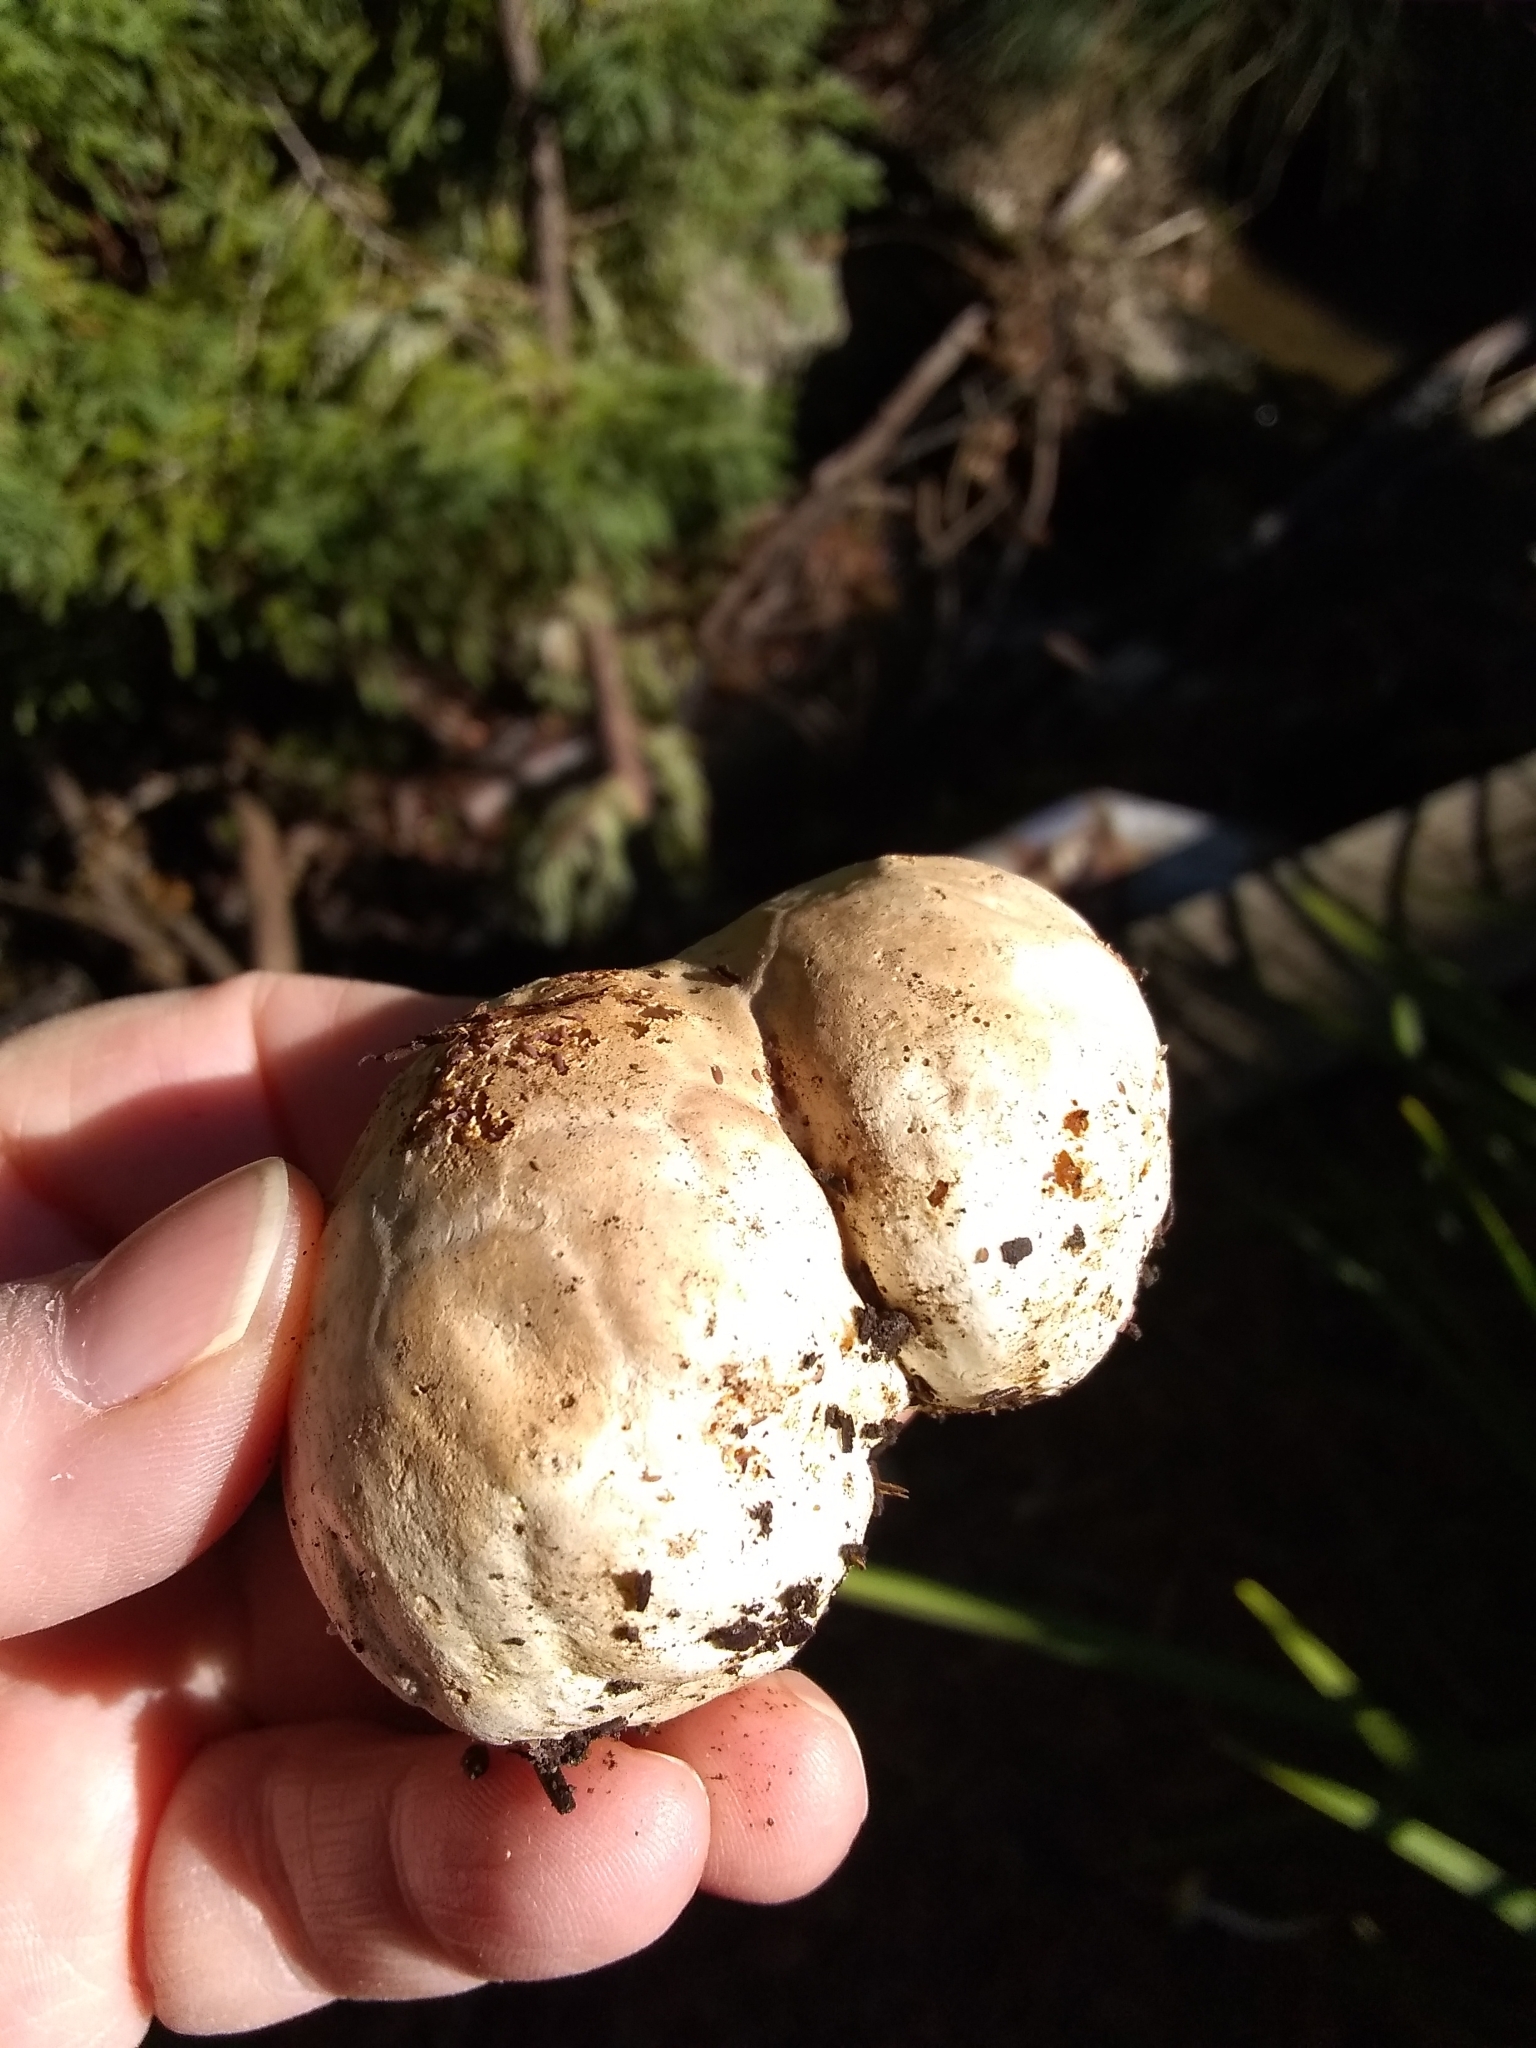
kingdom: Fungi
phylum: Basidiomycota
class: Agaricomycetes
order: Phallales
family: Phallaceae
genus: Clathrus
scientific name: Clathrus ruber
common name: Red cage
